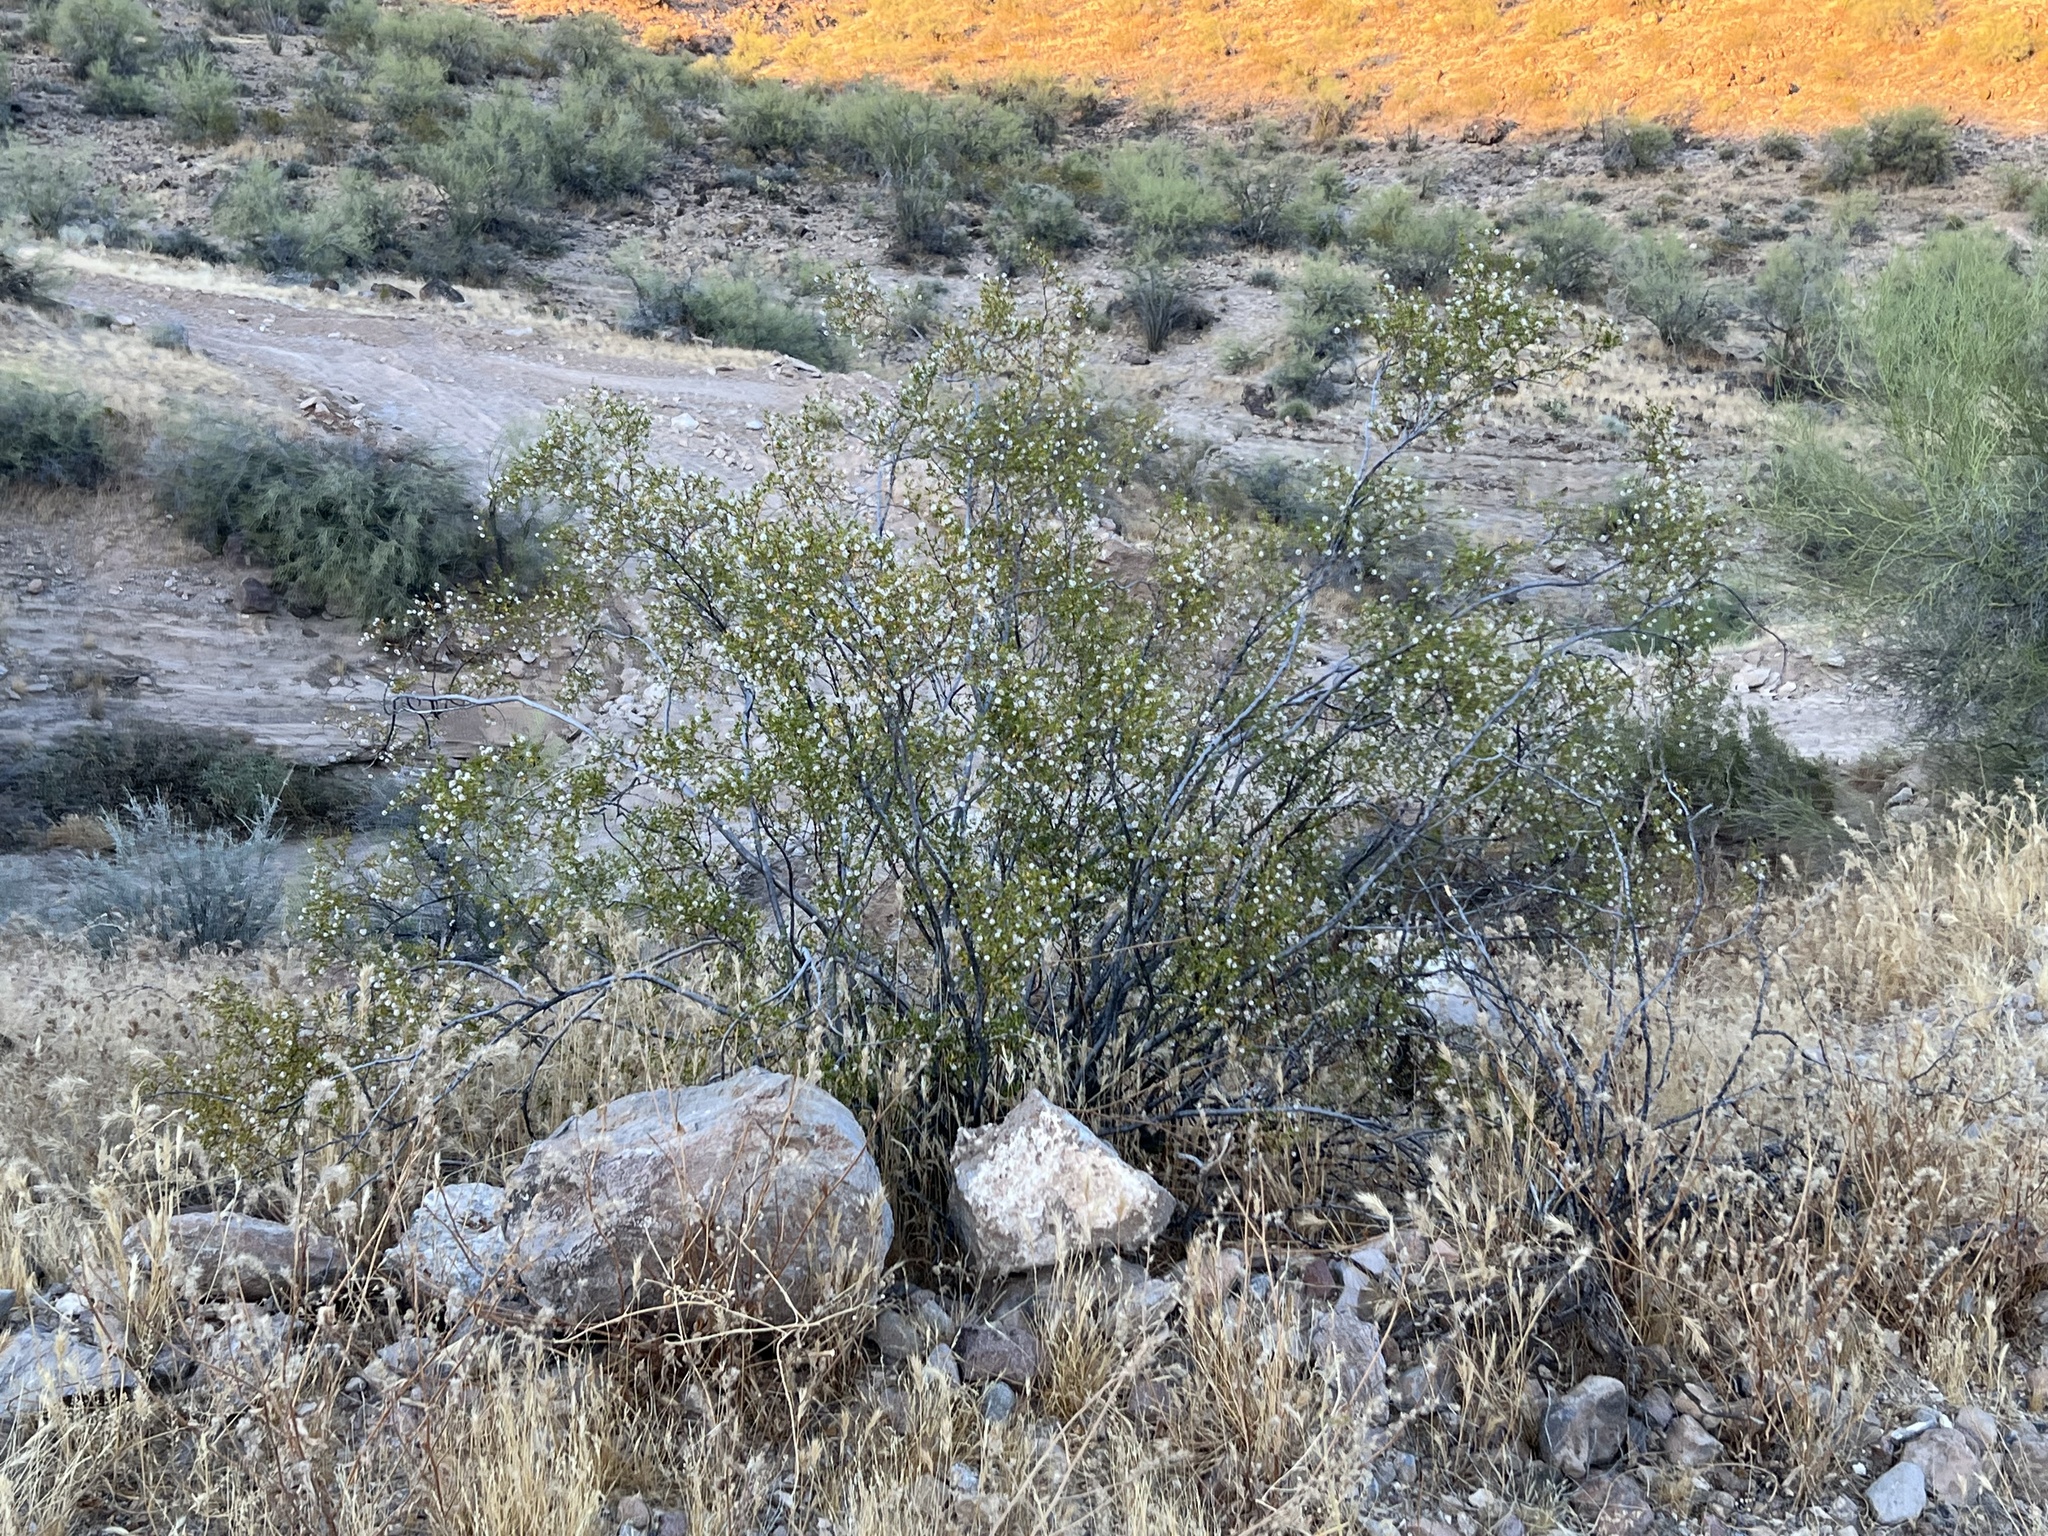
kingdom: Plantae
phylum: Tracheophyta
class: Magnoliopsida
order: Zygophyllales
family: Zygophyllaceae
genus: Larrea
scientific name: Larrea tridentata
